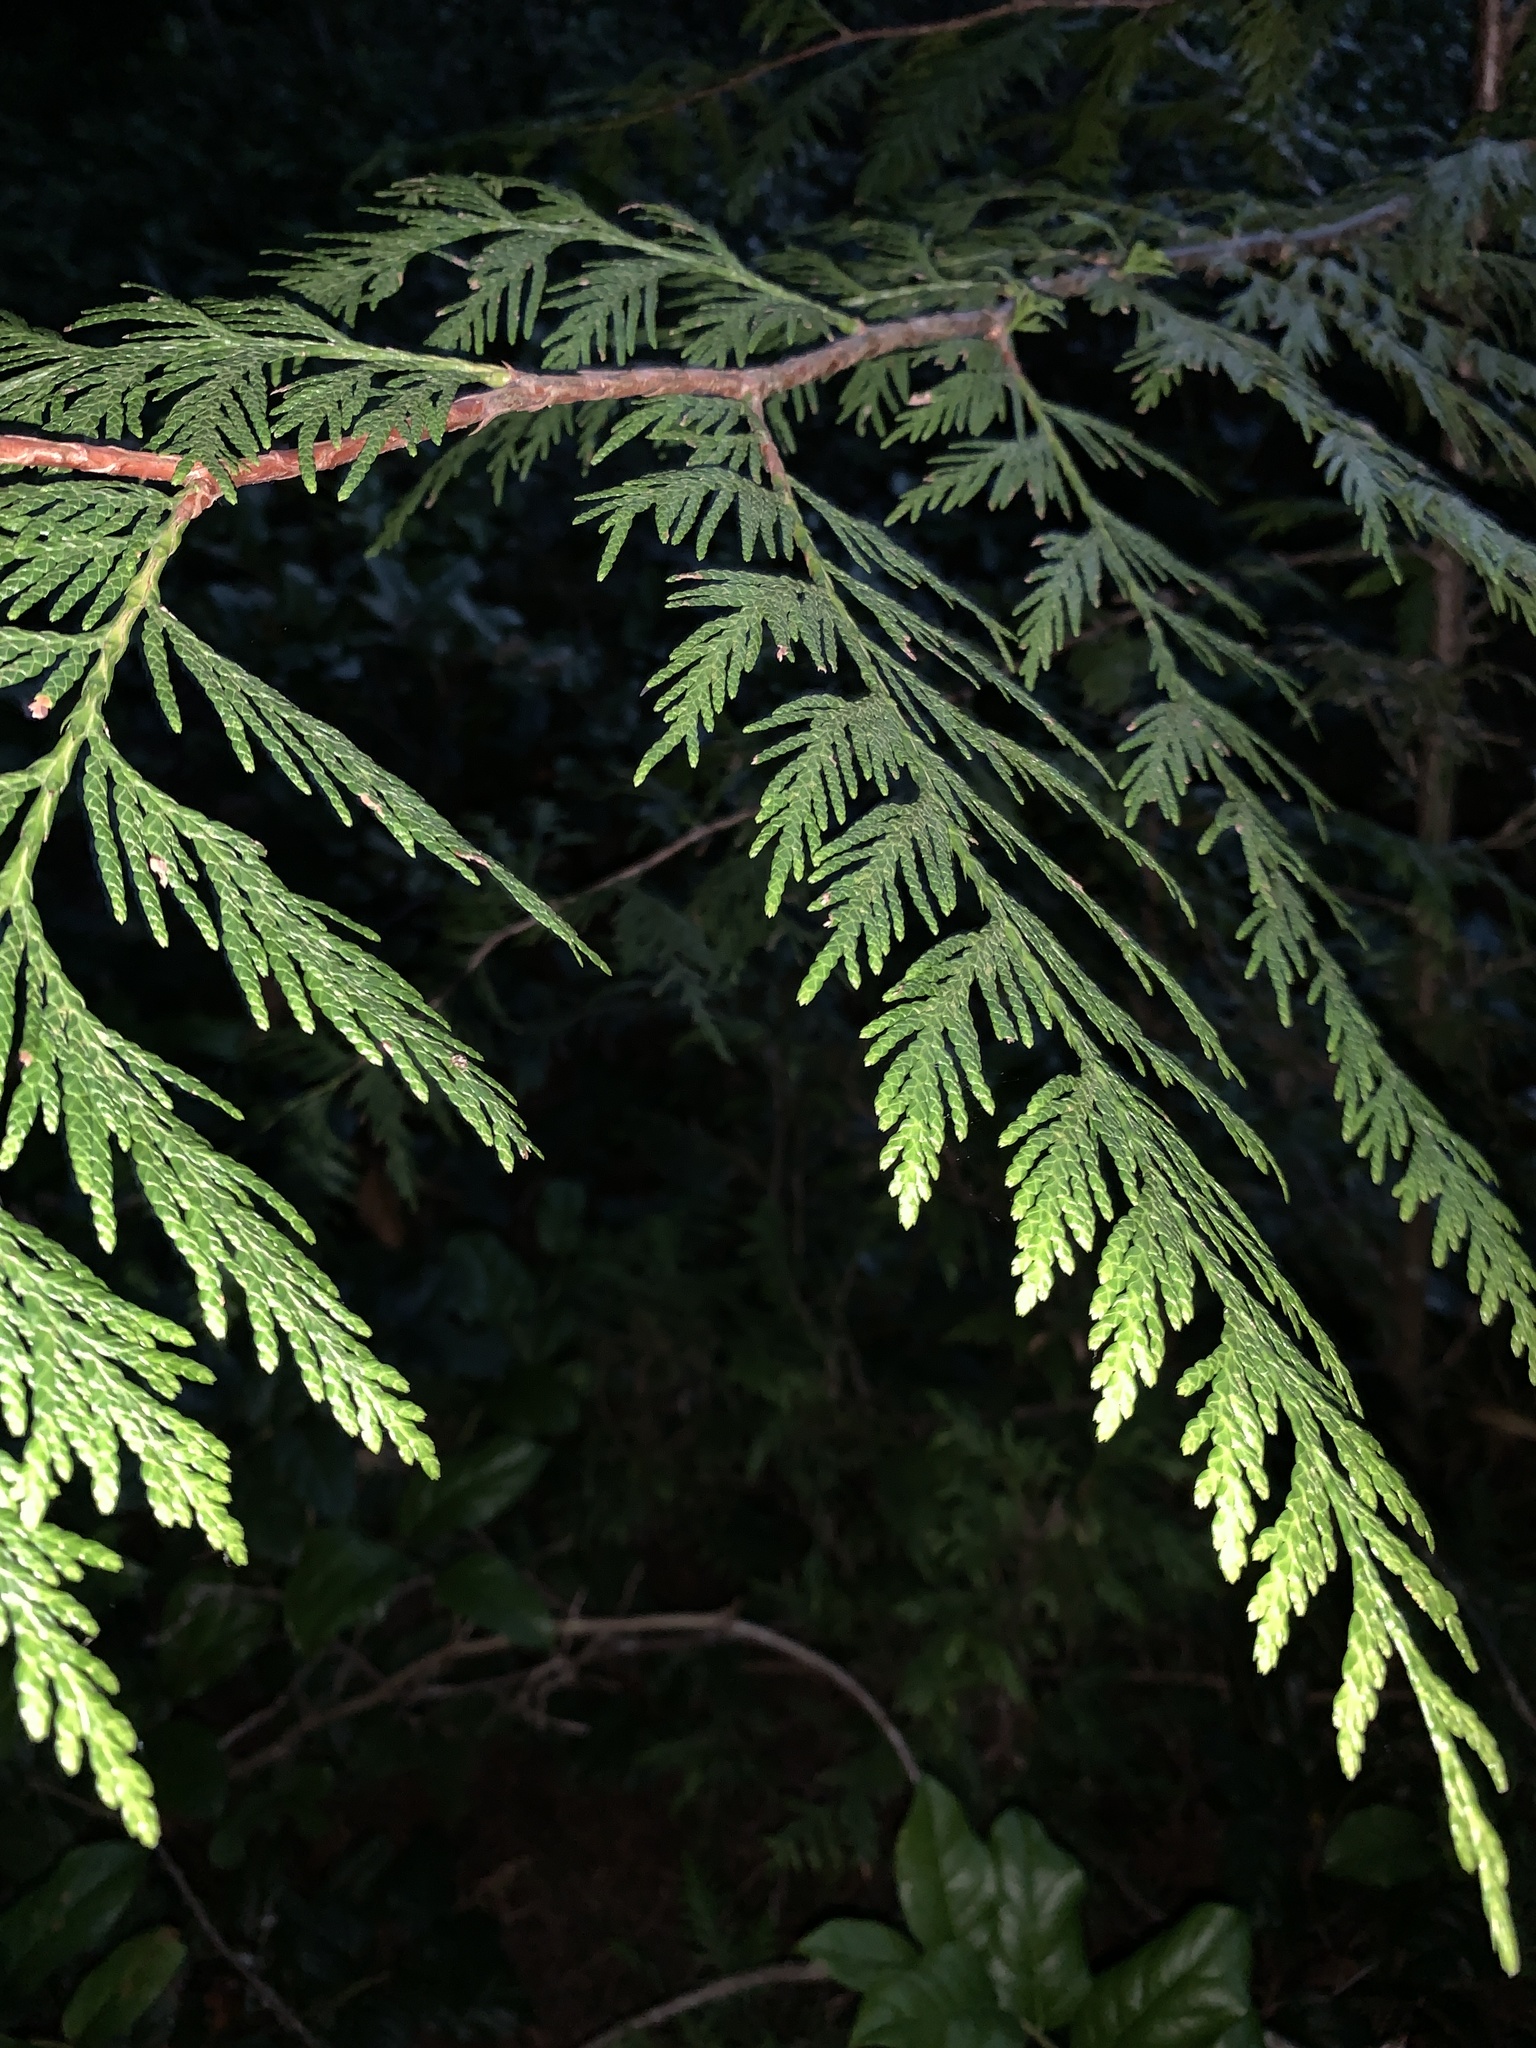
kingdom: Plantae
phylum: Tracheophyta
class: Pinopsida
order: Pinales
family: Cupressaceae
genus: Thuja
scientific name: Thuja plicata
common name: Western red-cedar
